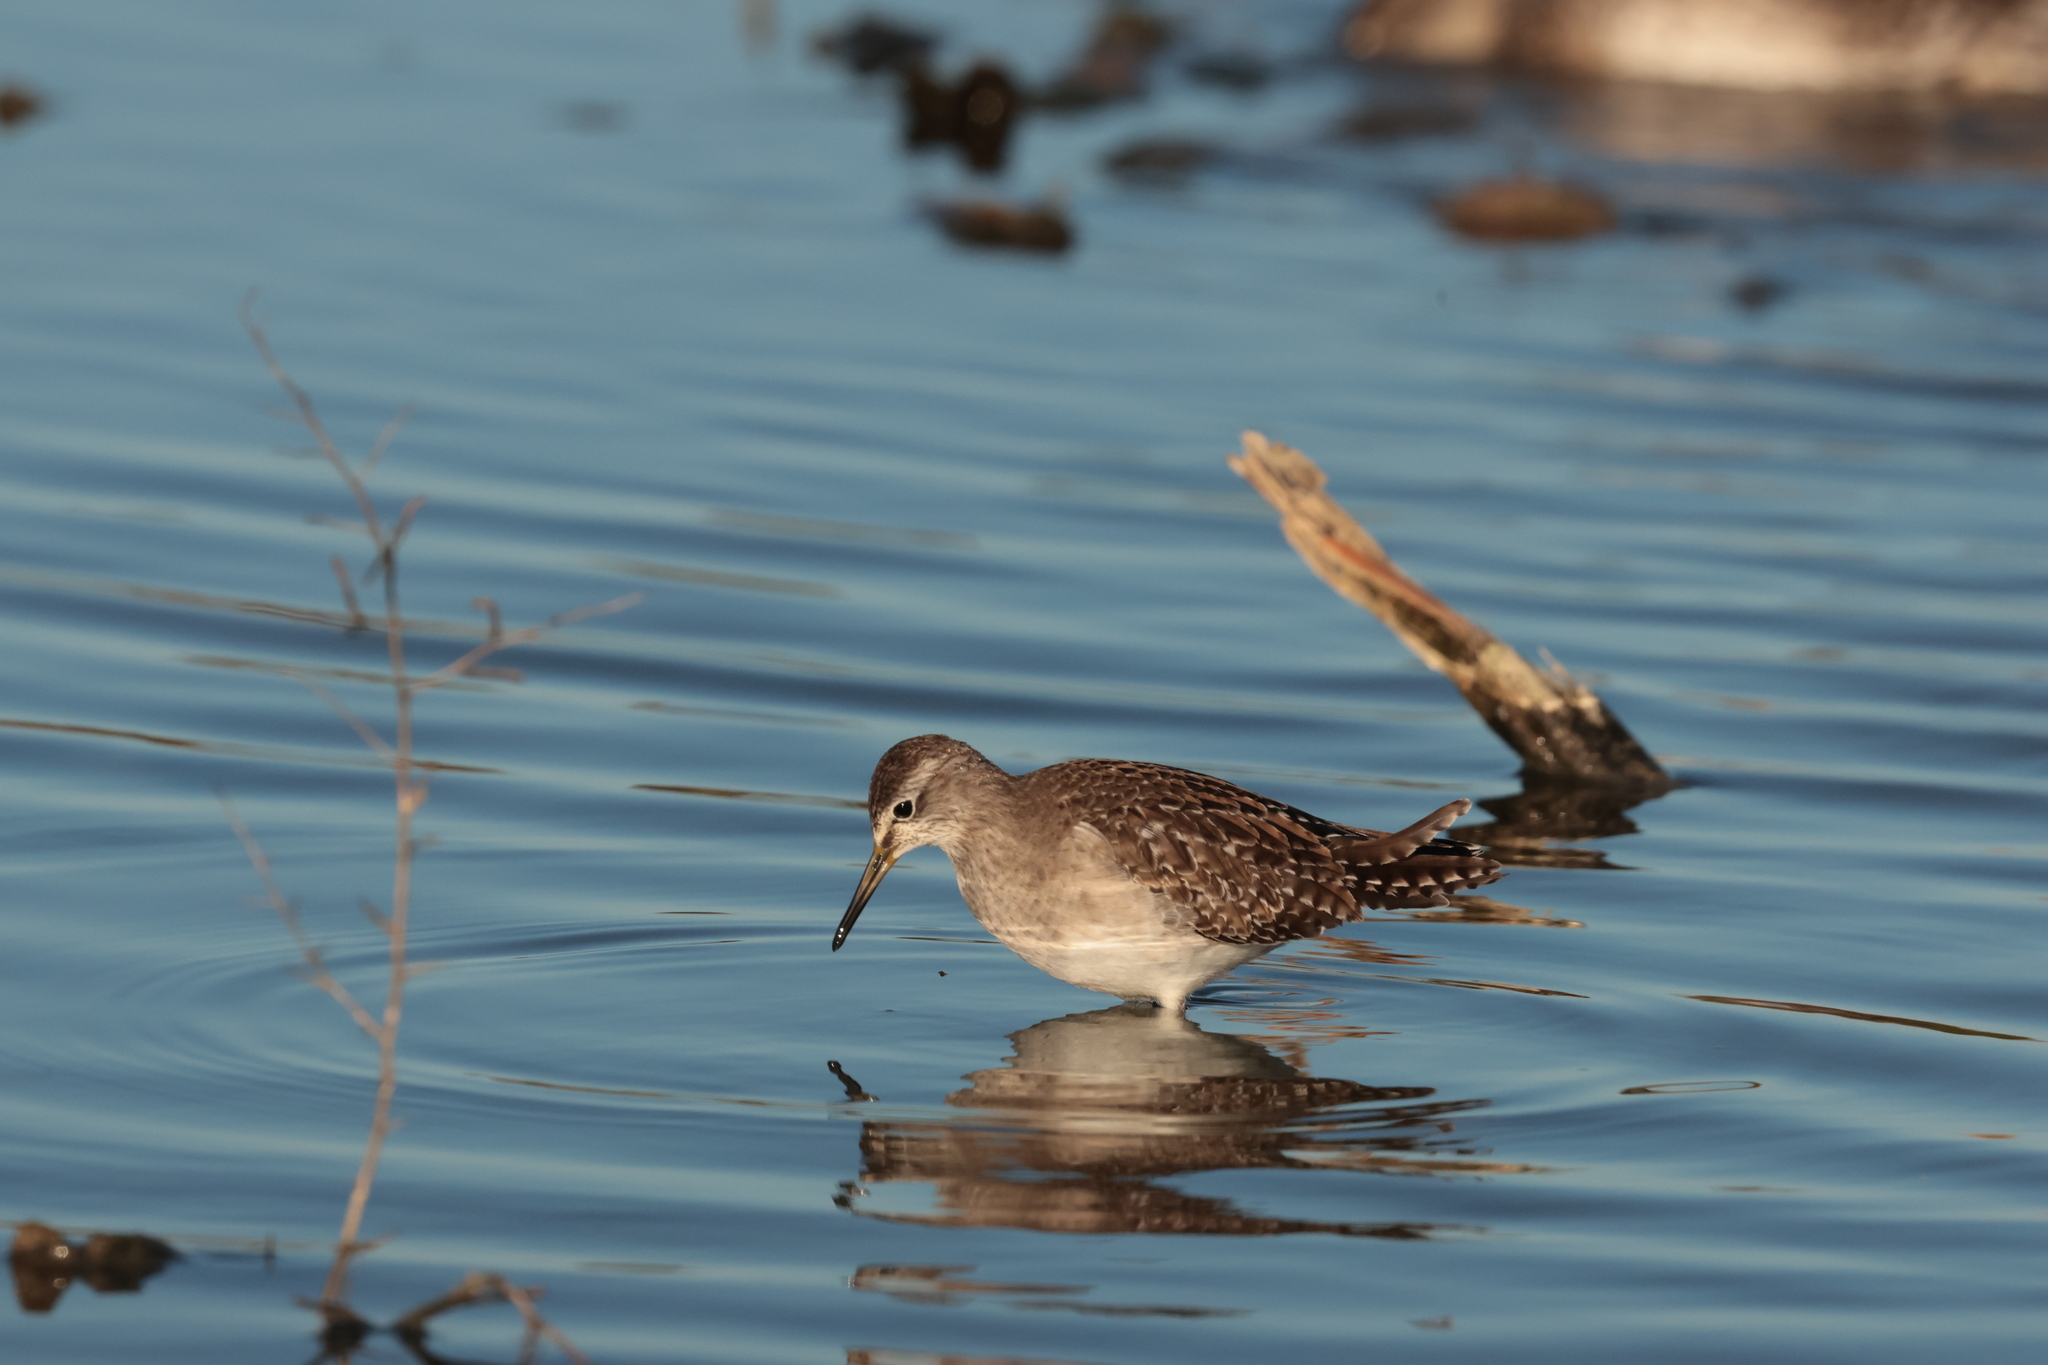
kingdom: Animalia
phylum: Chordata
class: Aves
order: Charadriiformes
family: Scolopacidae
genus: Tringa
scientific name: Tringa glareola
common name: Wood sandpiper
